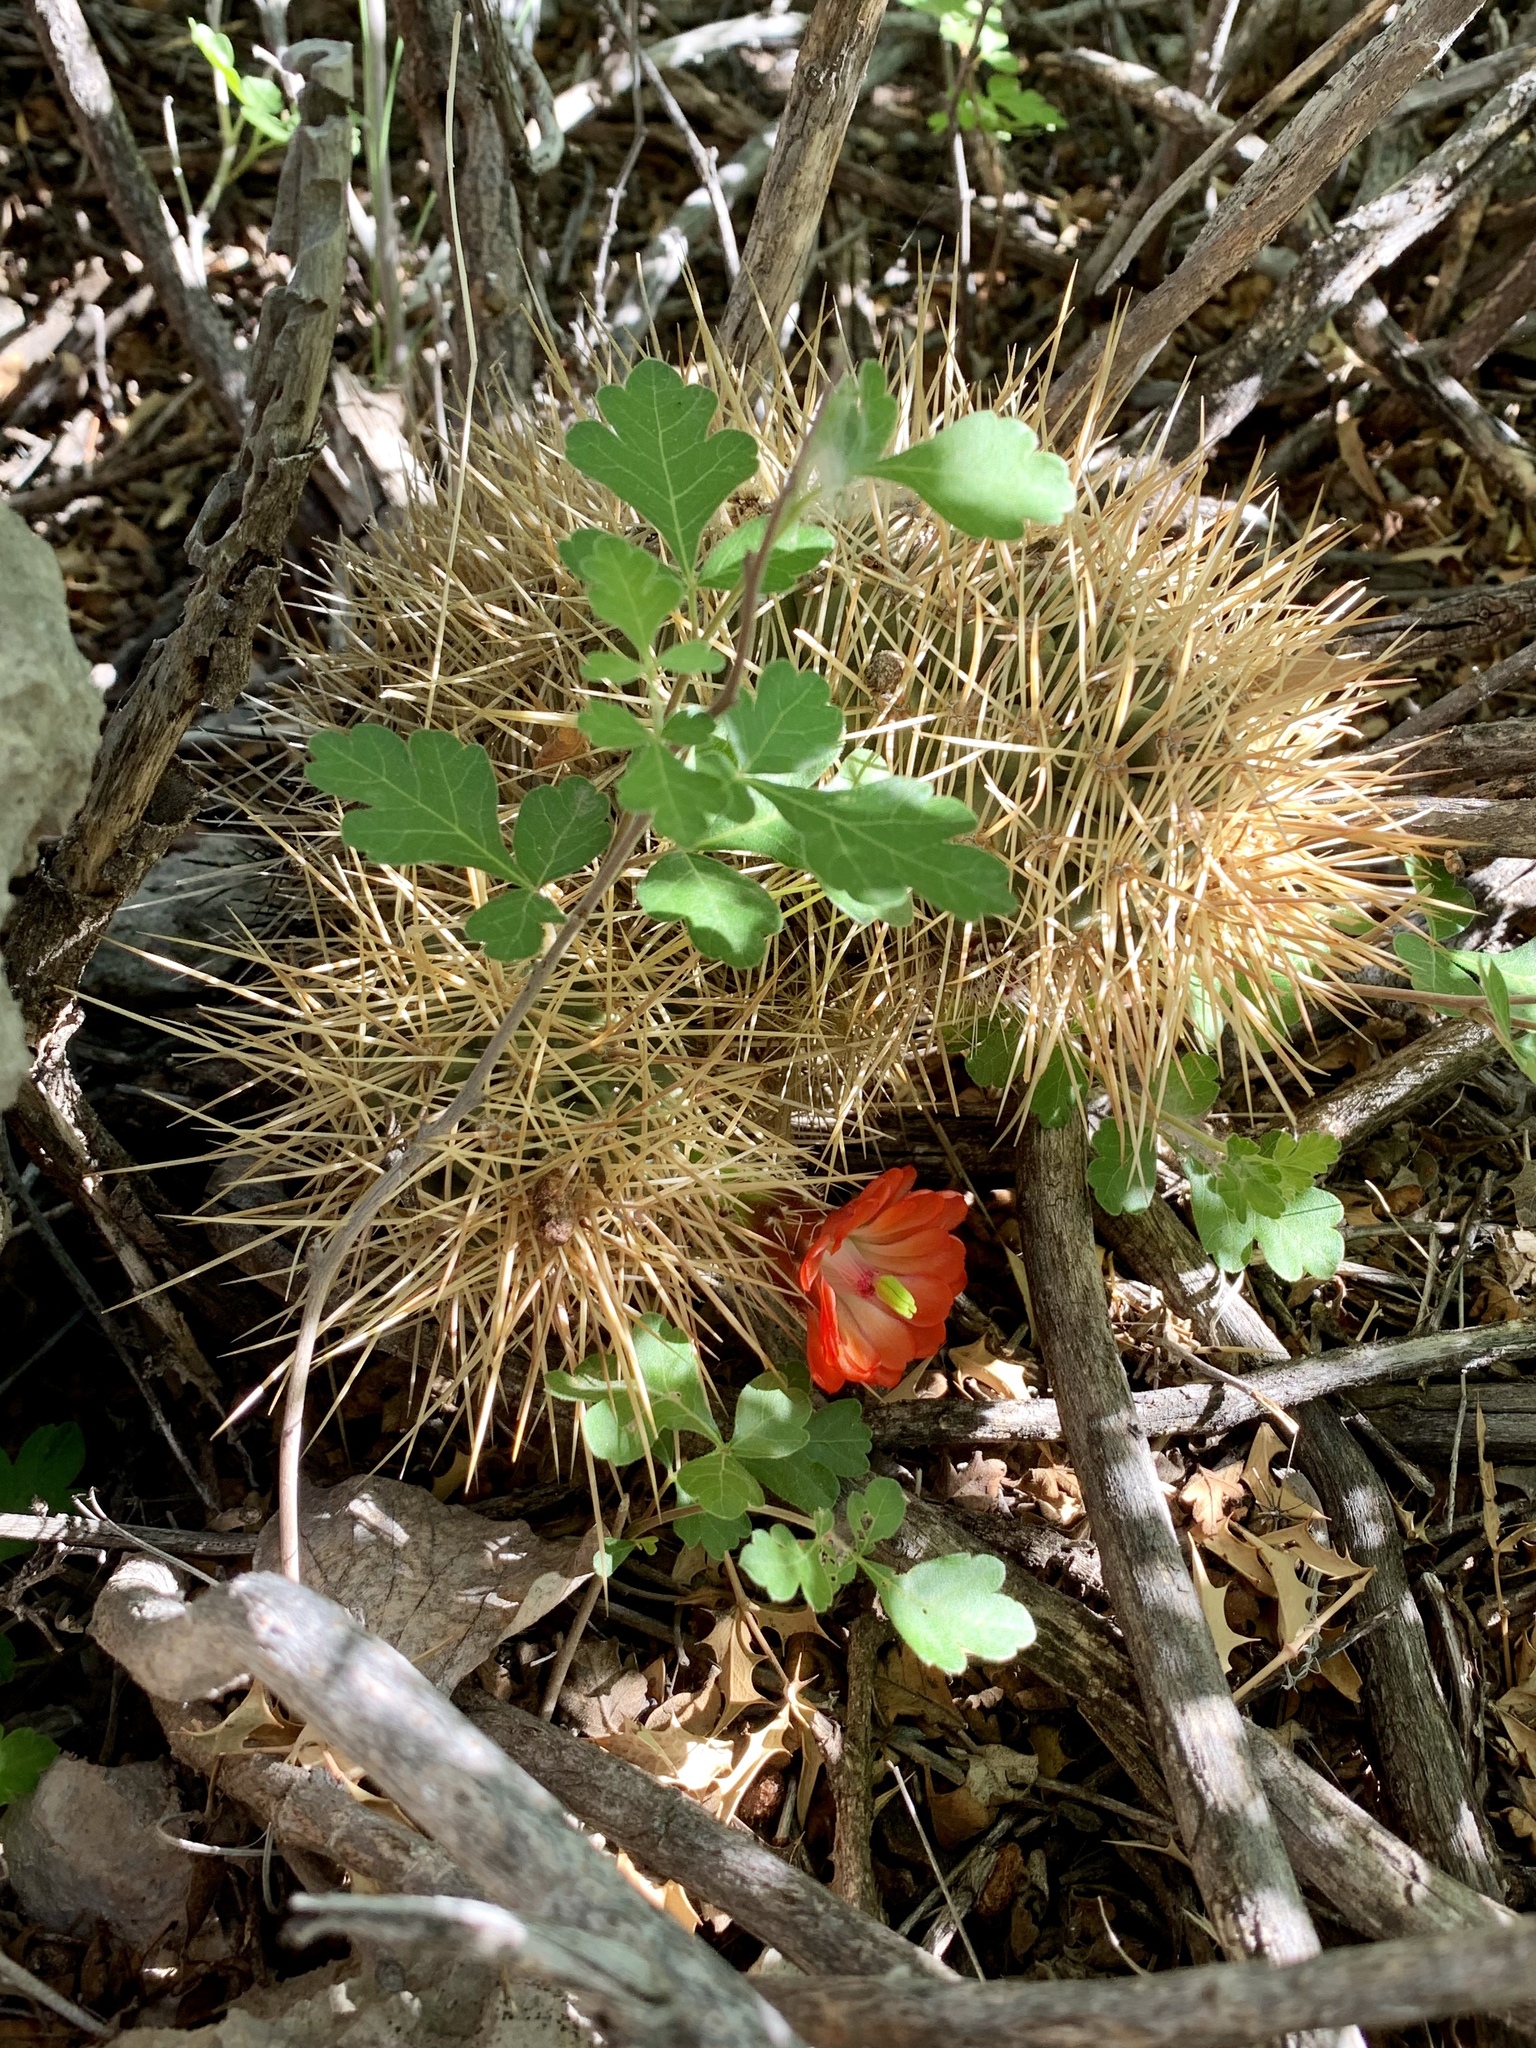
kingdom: Plantae
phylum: Tracheophyta
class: Magnoliopsida
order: Caryophyllales
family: Cactaceae
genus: Echinocereus
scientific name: Echinocereus coccineus
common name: Scarlet hedgehog cactus
